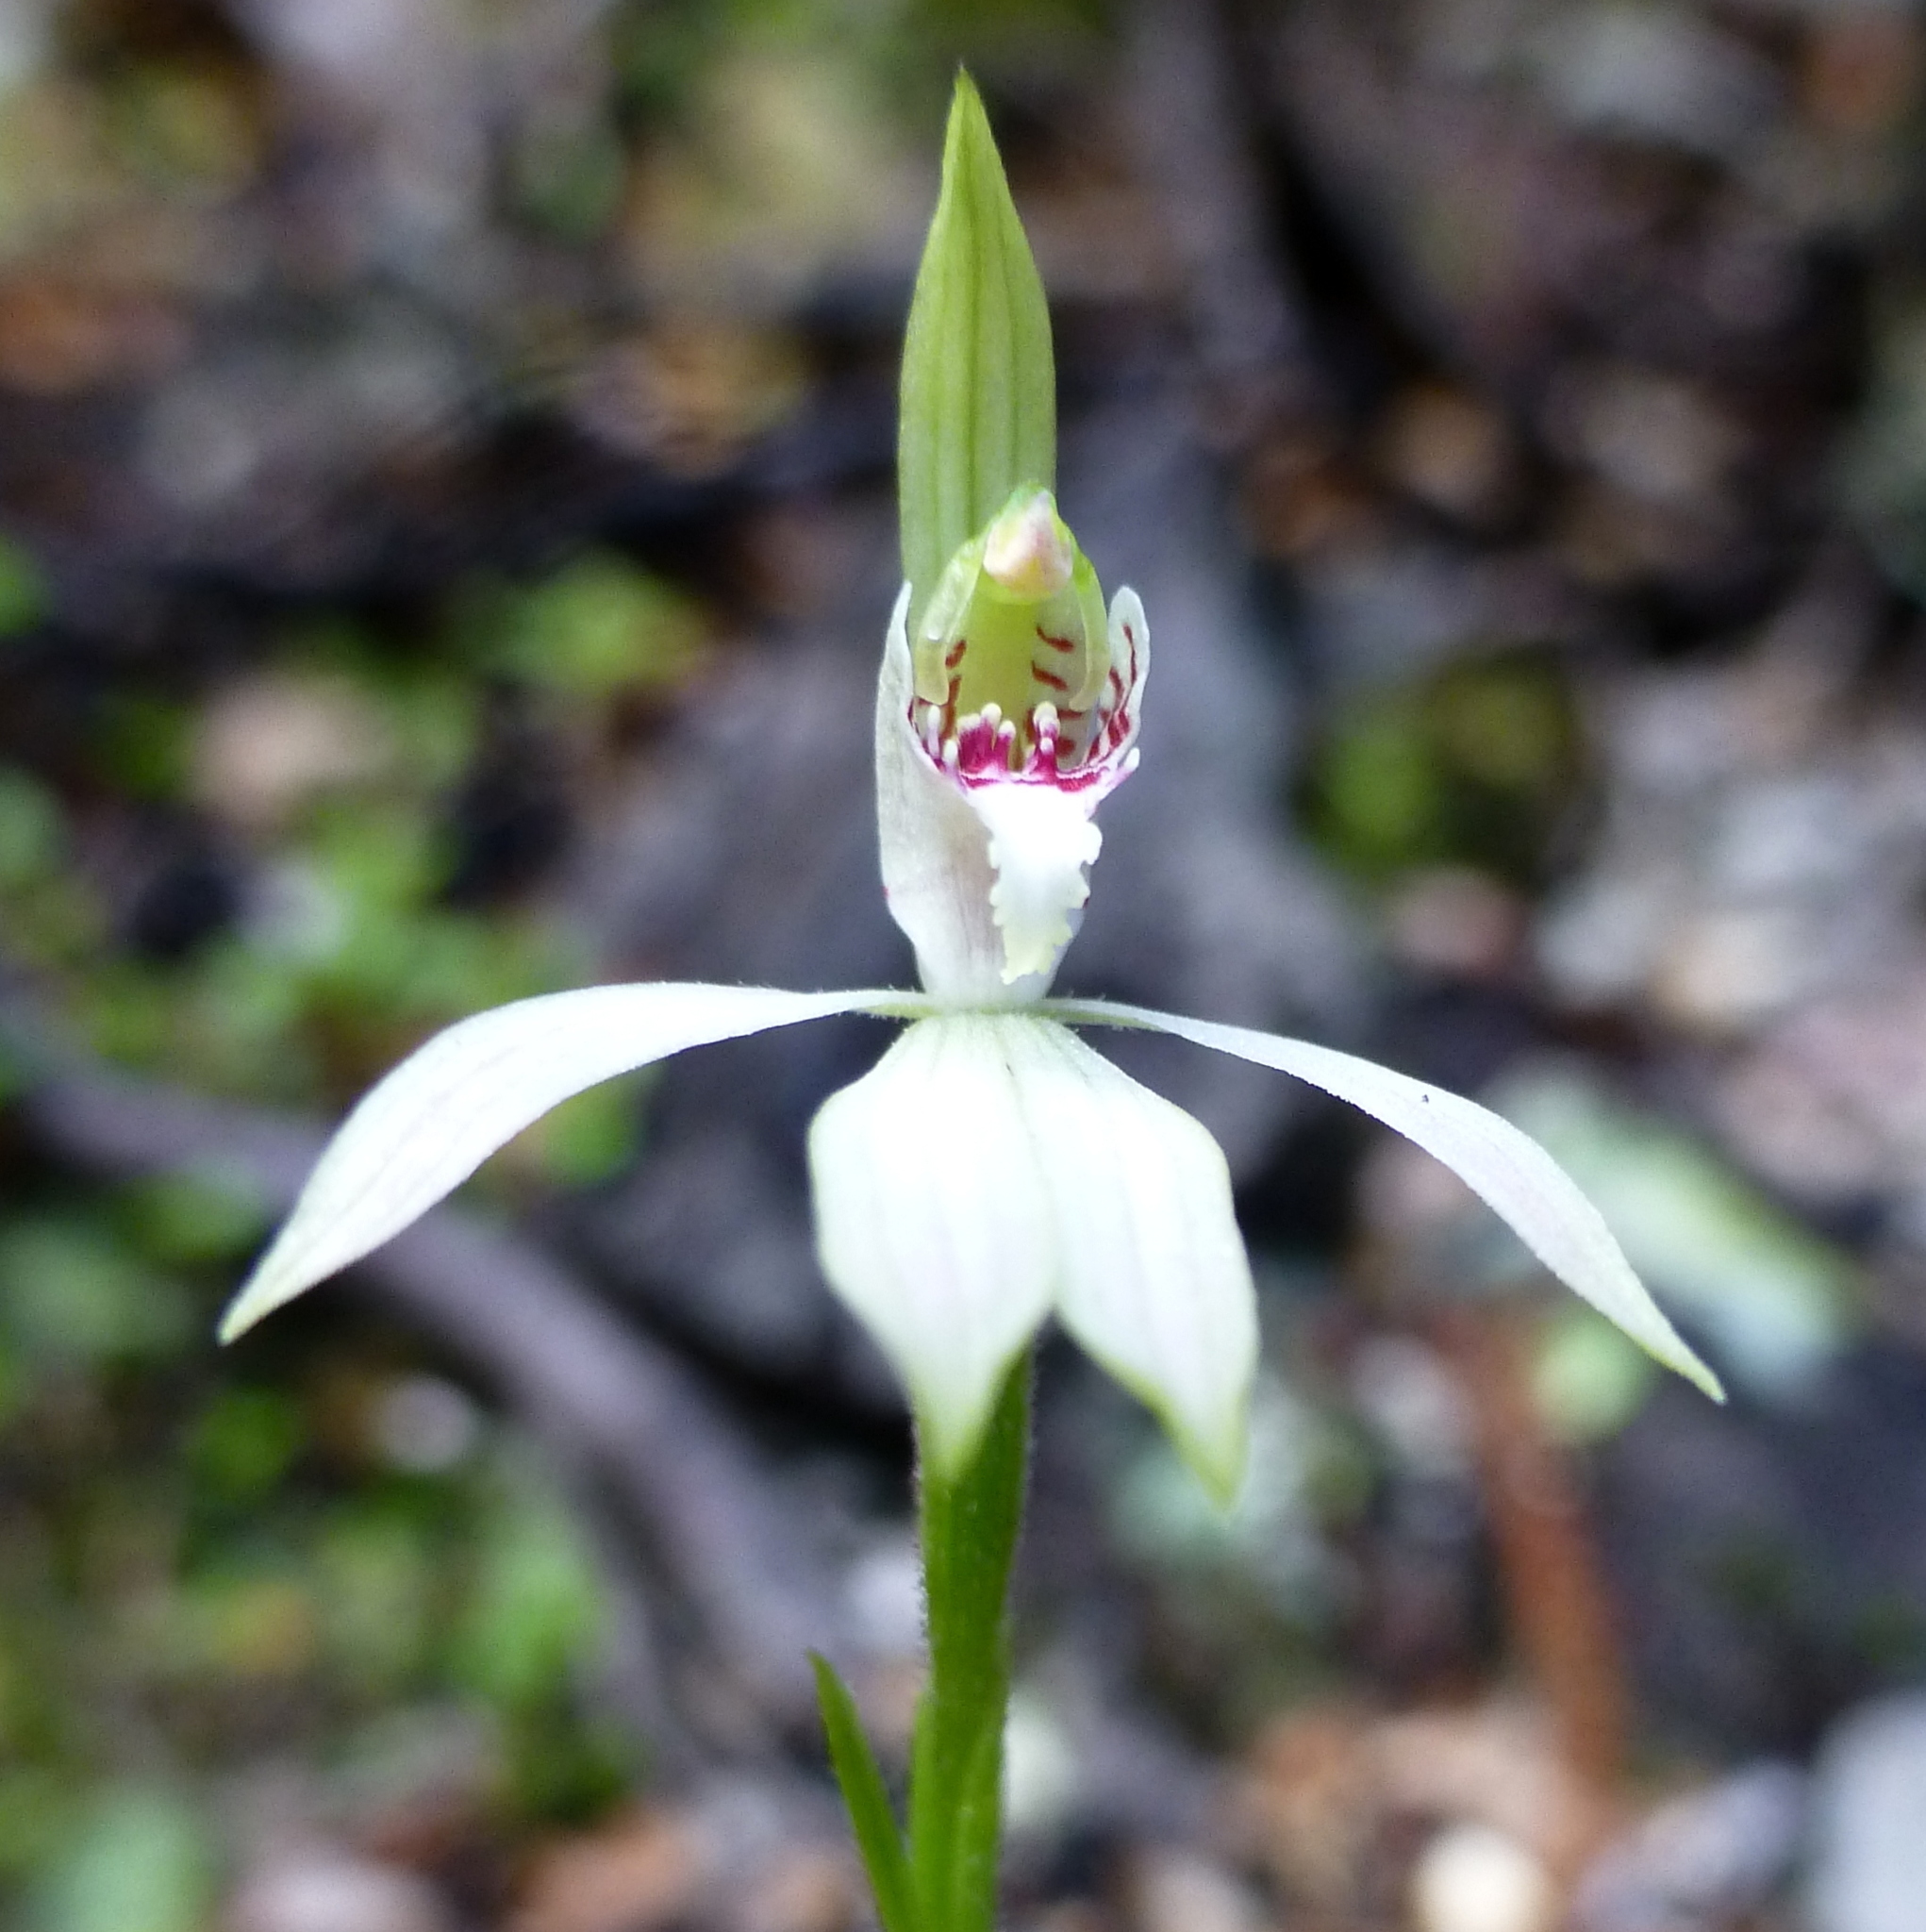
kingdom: Plantae
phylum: Tracheophyta
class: Liliopsida
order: Asparagales
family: Orchidaceae
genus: Caladenia
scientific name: Caladenia chlorostyla
